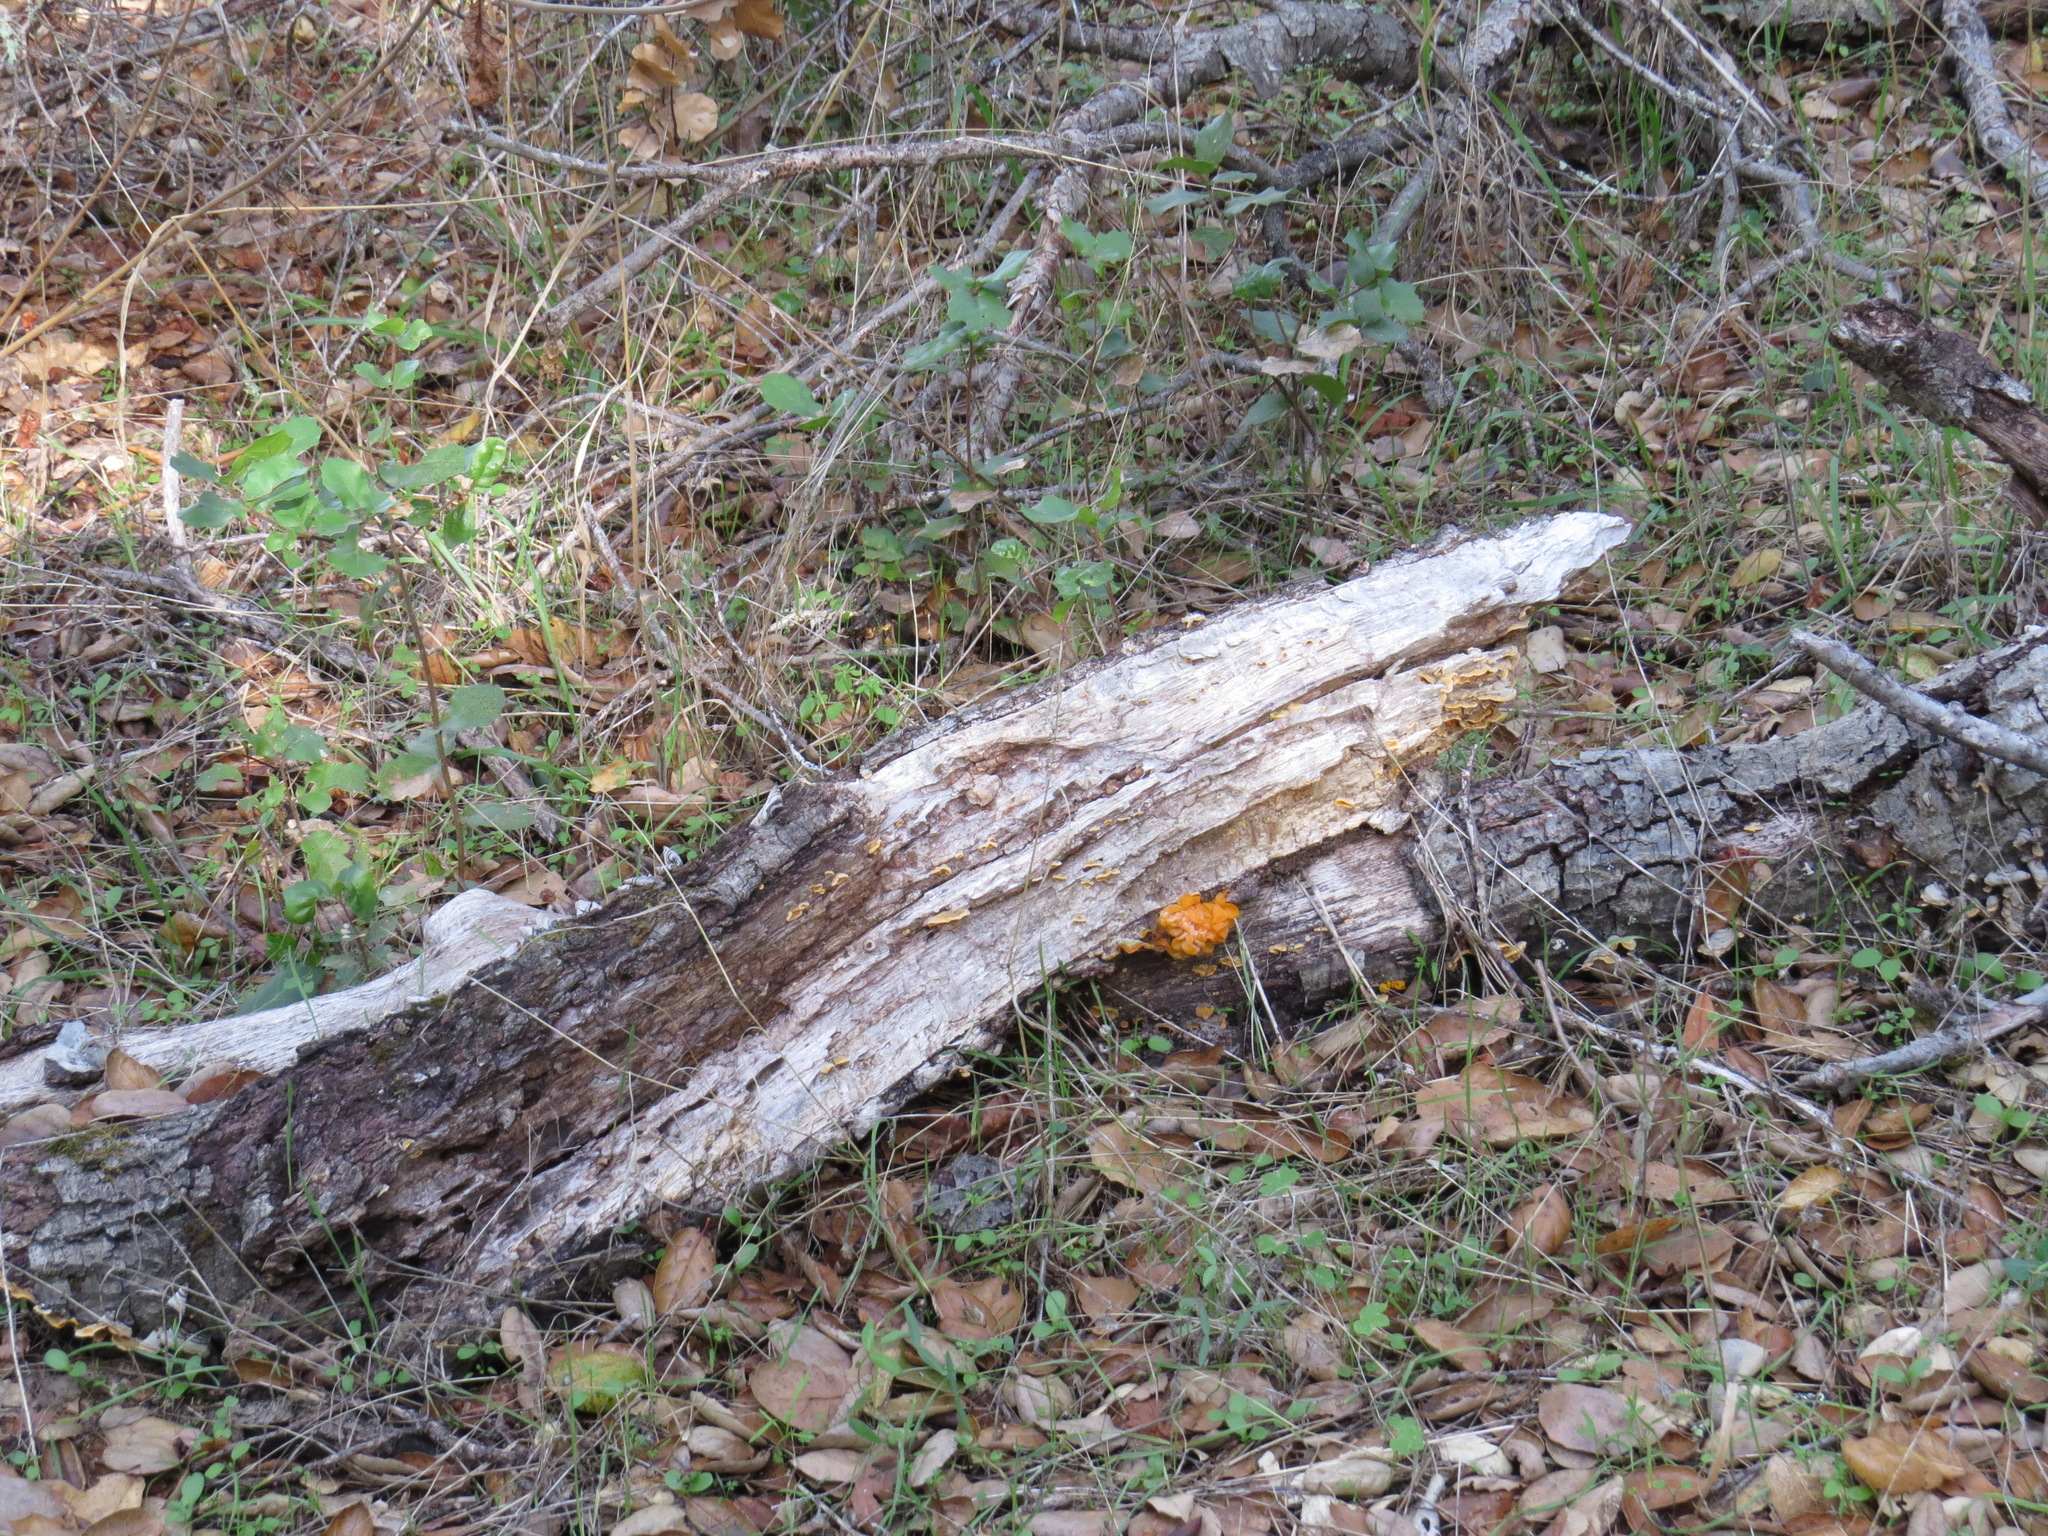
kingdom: Fungi
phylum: Basidiomycota
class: Tremellomycetes
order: Tremellales
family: Naemateliaceae
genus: Naematelia
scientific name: Naematelia aurantia
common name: Golden ear
